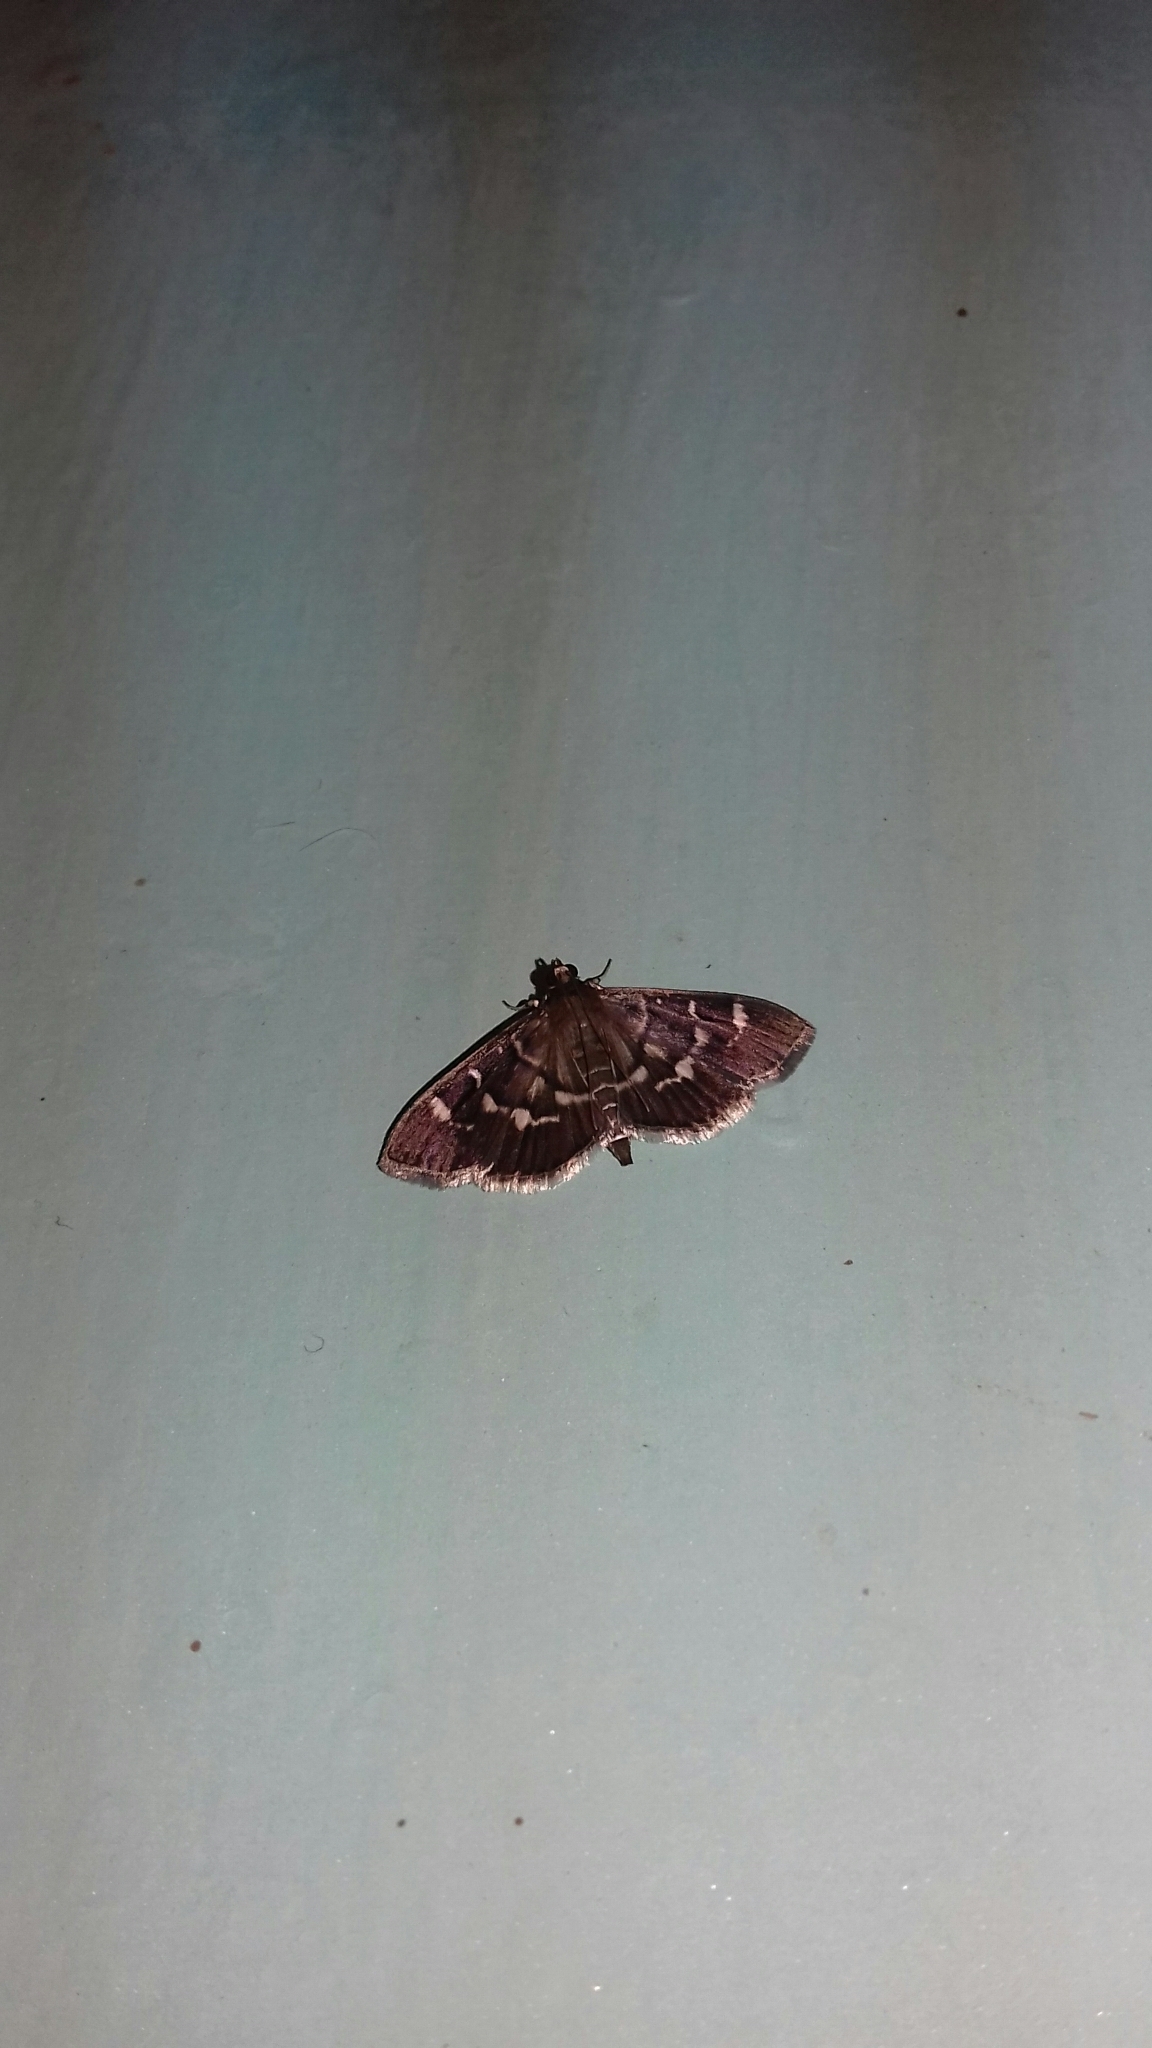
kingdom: Animalia
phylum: Arthropoda
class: Insecta
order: Lepidoptera
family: Crambidae
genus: Hymenia
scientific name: Hymenia perspectalis
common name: Spotted beet webworm
